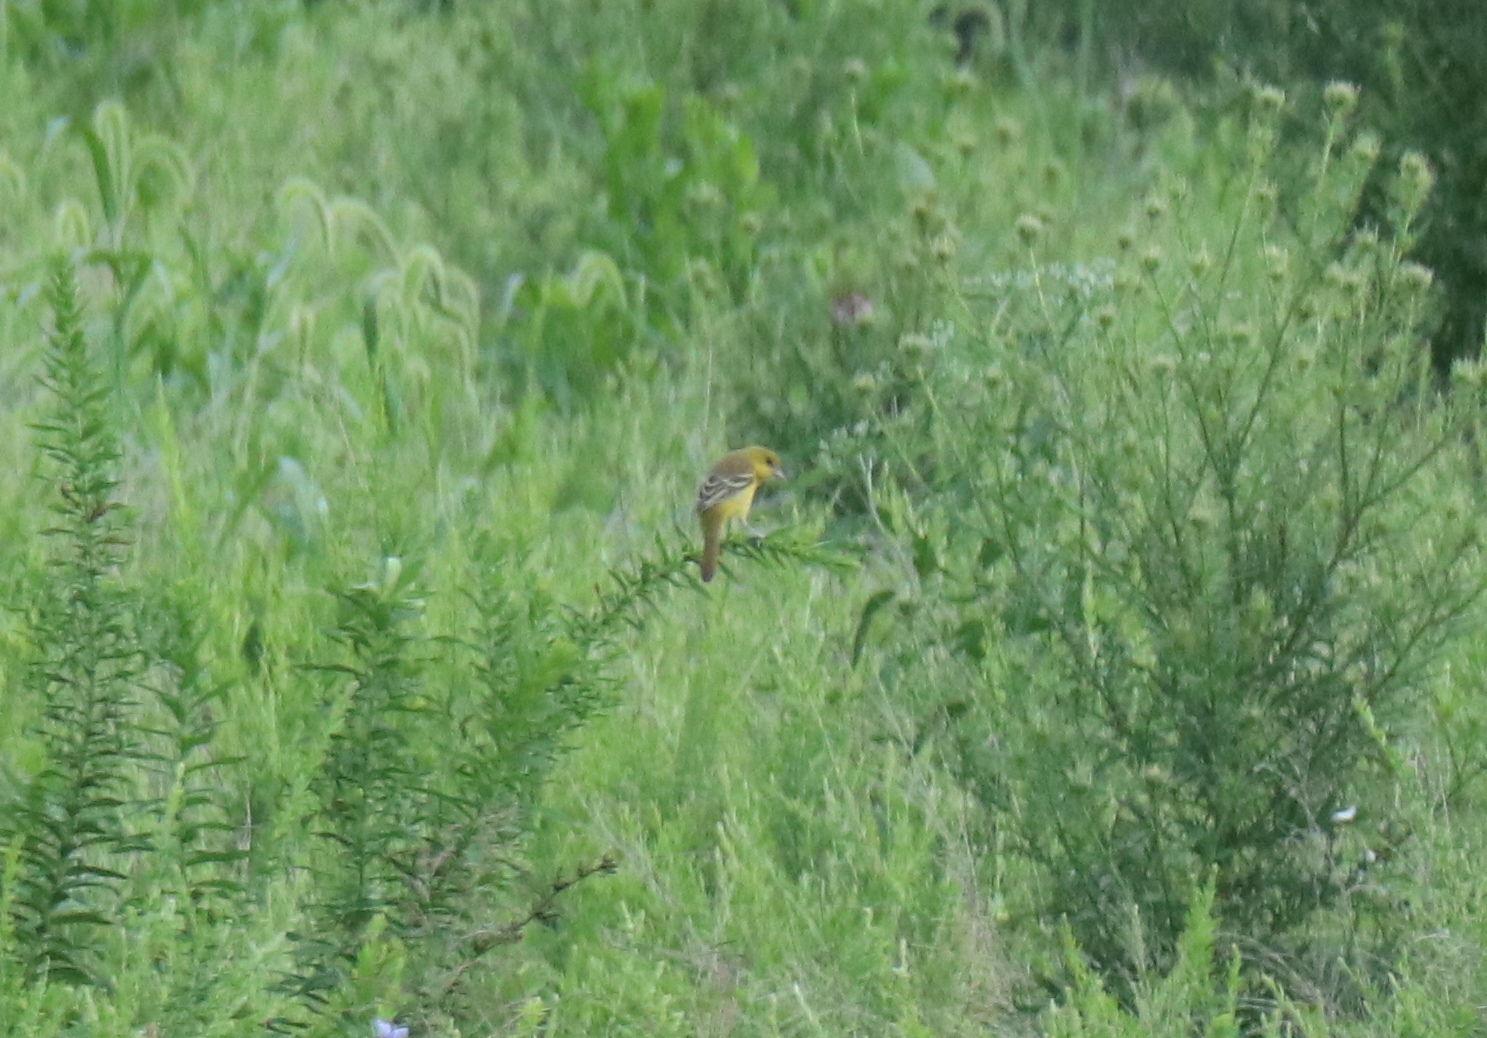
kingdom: Animalia
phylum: Chordata
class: Aves
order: Passeriformes
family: Icteridae
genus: Icterus
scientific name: Icterus spurius
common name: Orchard oriole
